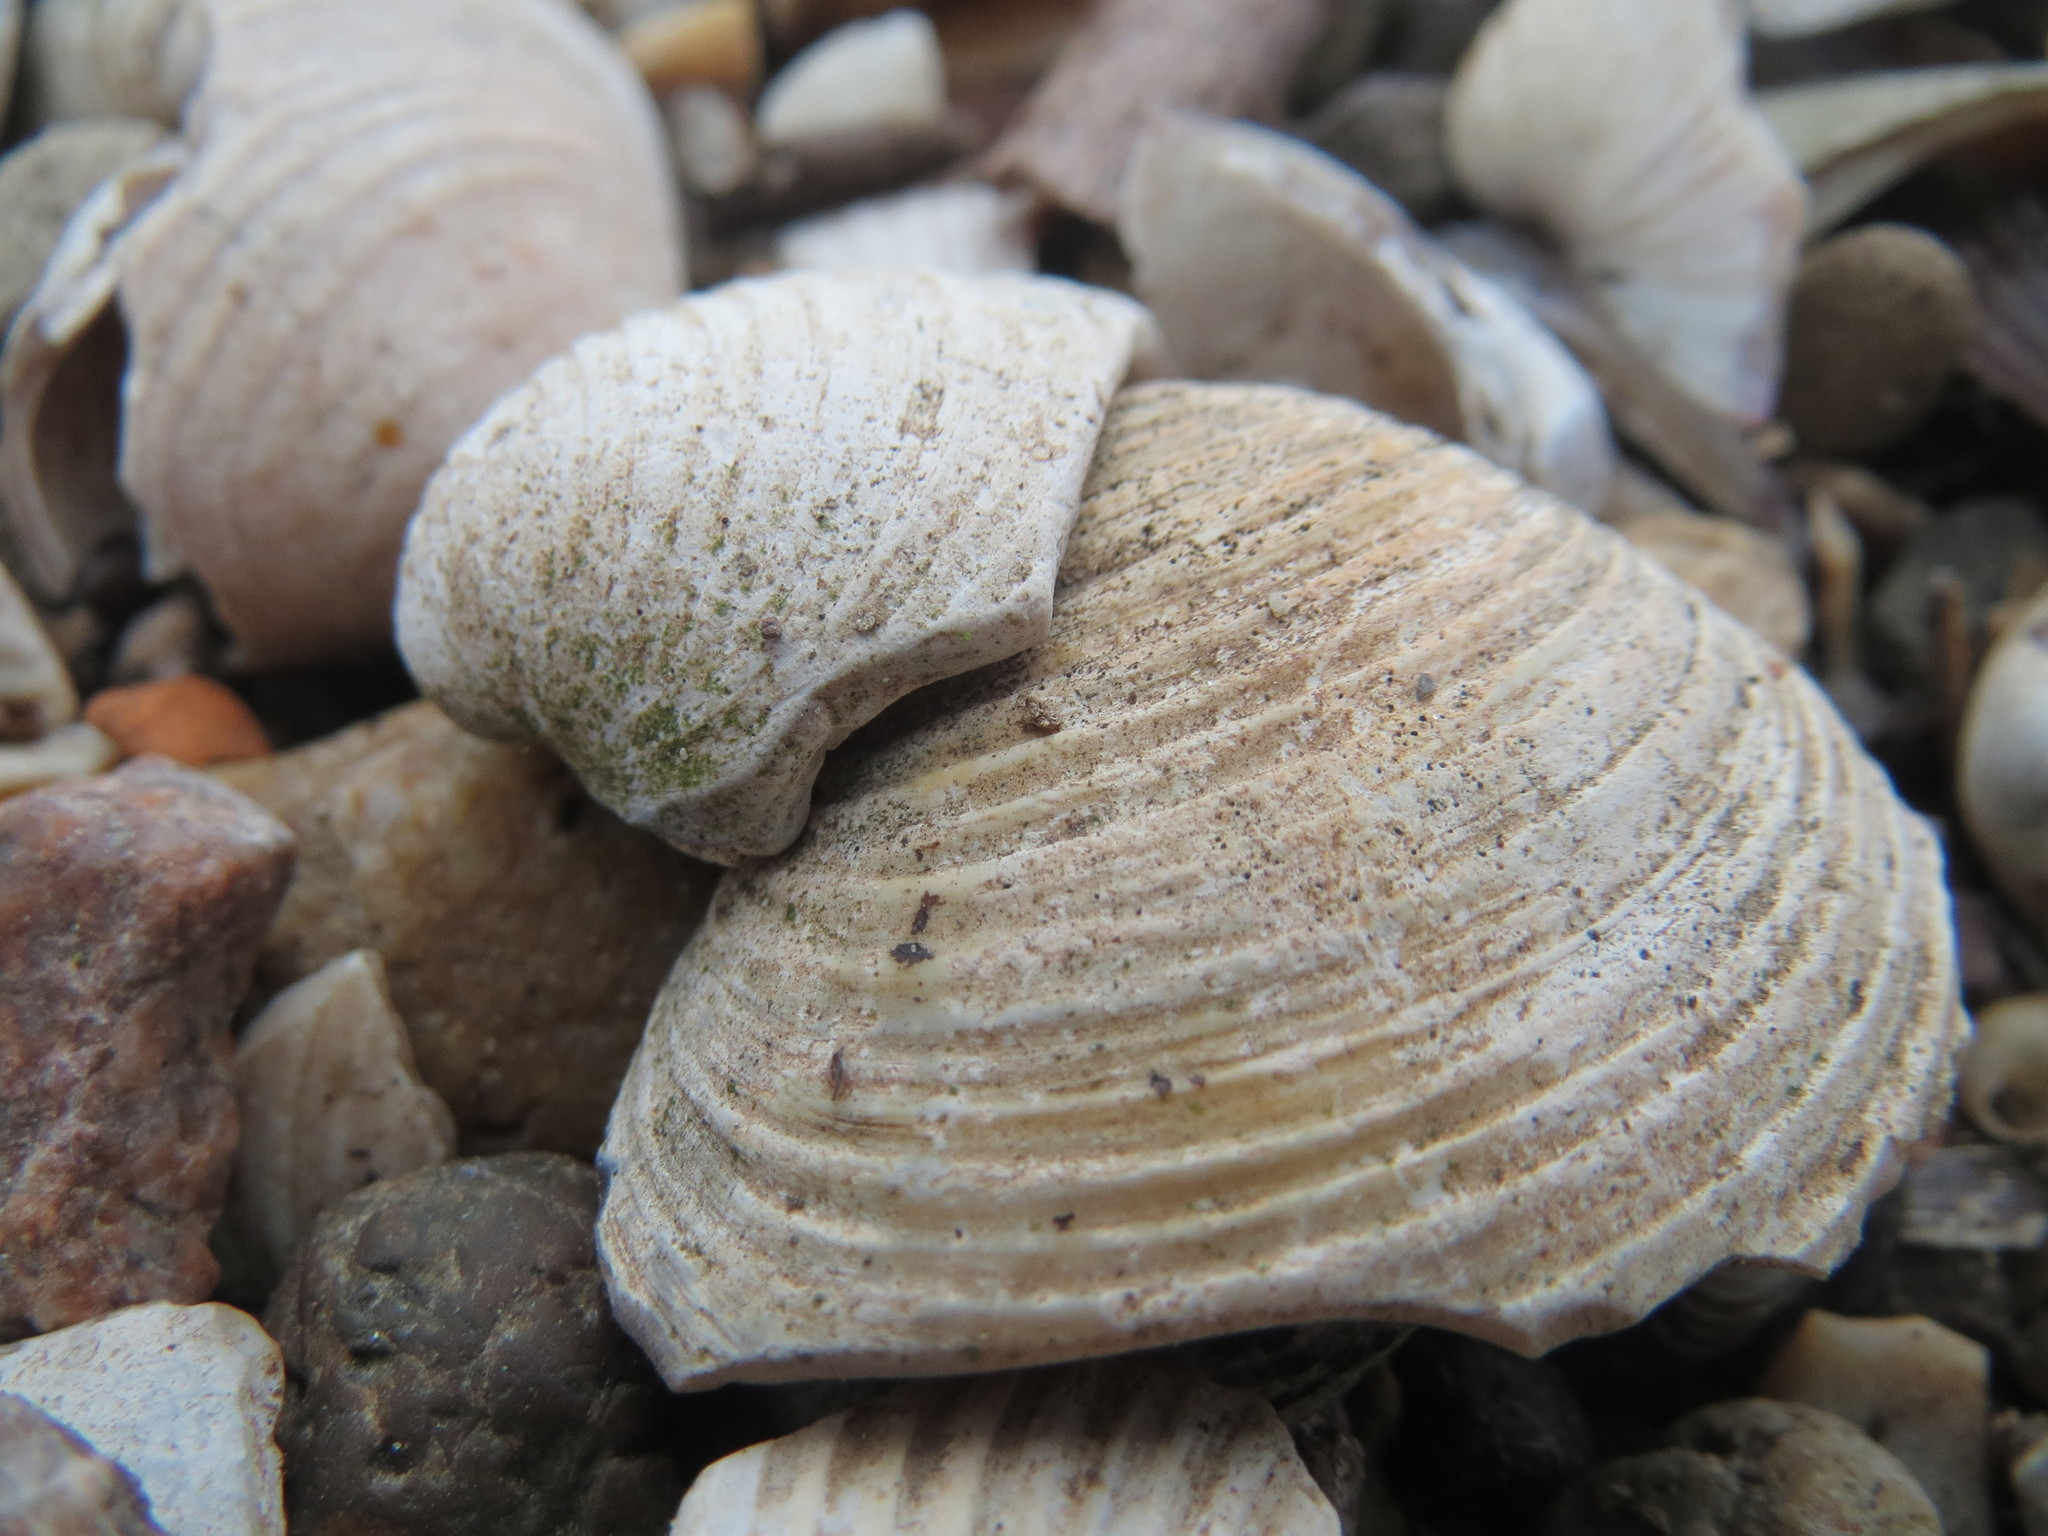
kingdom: Animalia
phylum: Mollusca
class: Bivalvia
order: Venerida
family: Cyrenidae
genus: Corbicula
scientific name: Corbicula fluminea
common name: Asian clam
